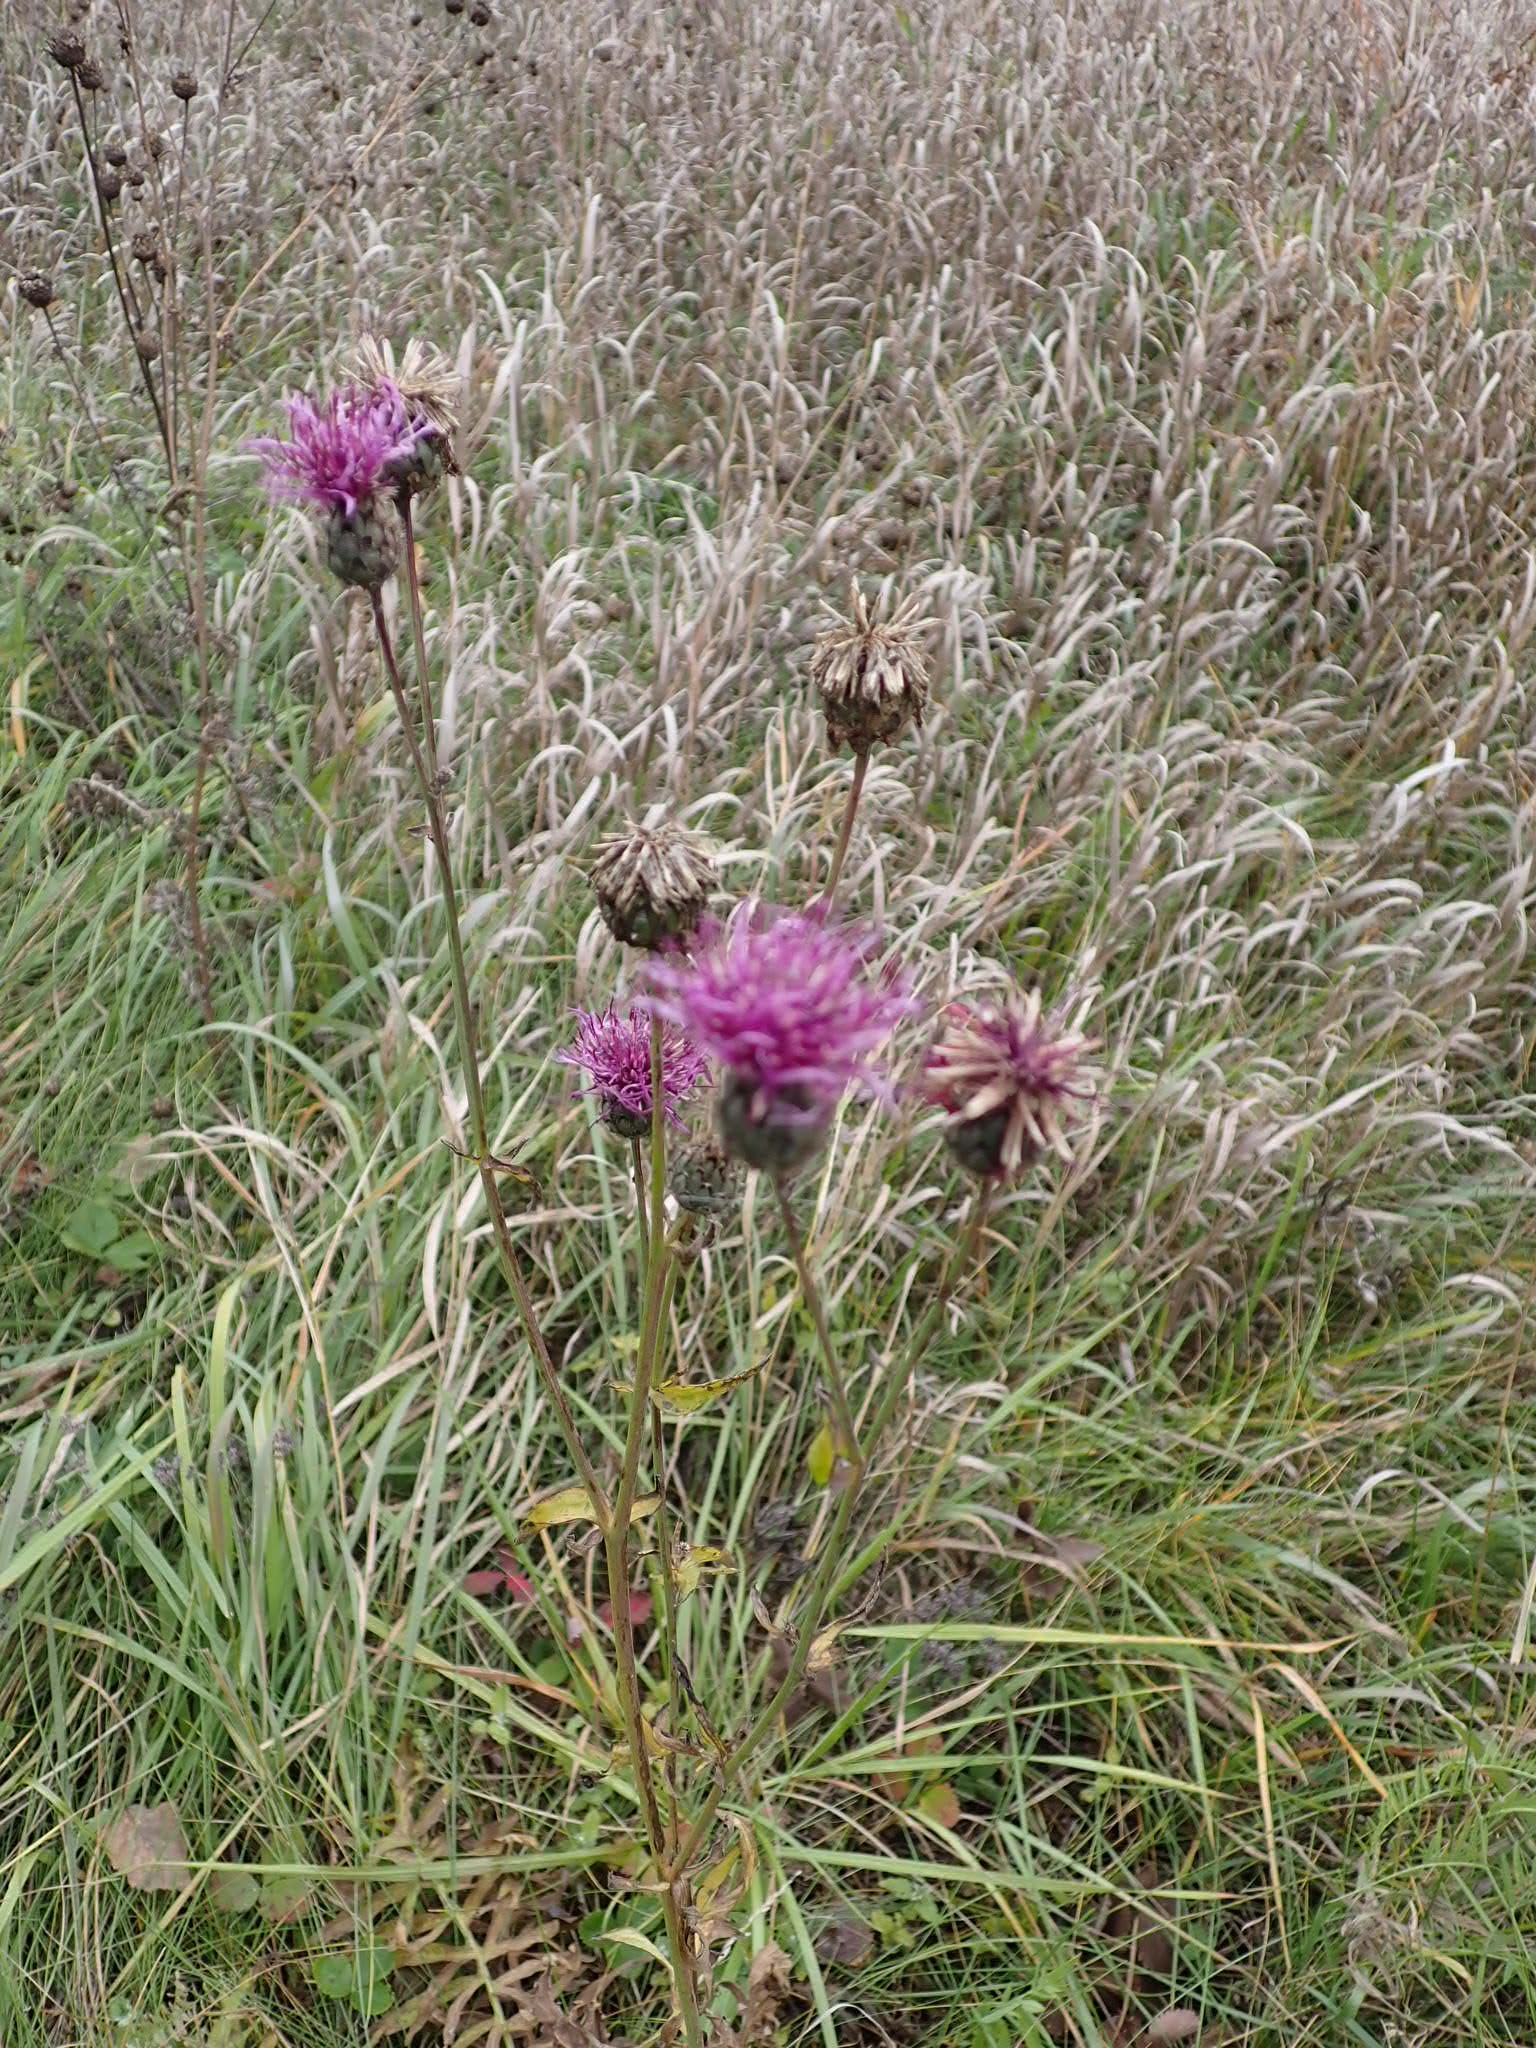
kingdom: Plantae
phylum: Tracheophyta
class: Magnoliopsida
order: Asterales
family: Asteraceae
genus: Centaurea
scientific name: Centaurea scabiosa
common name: Greater knapweed
